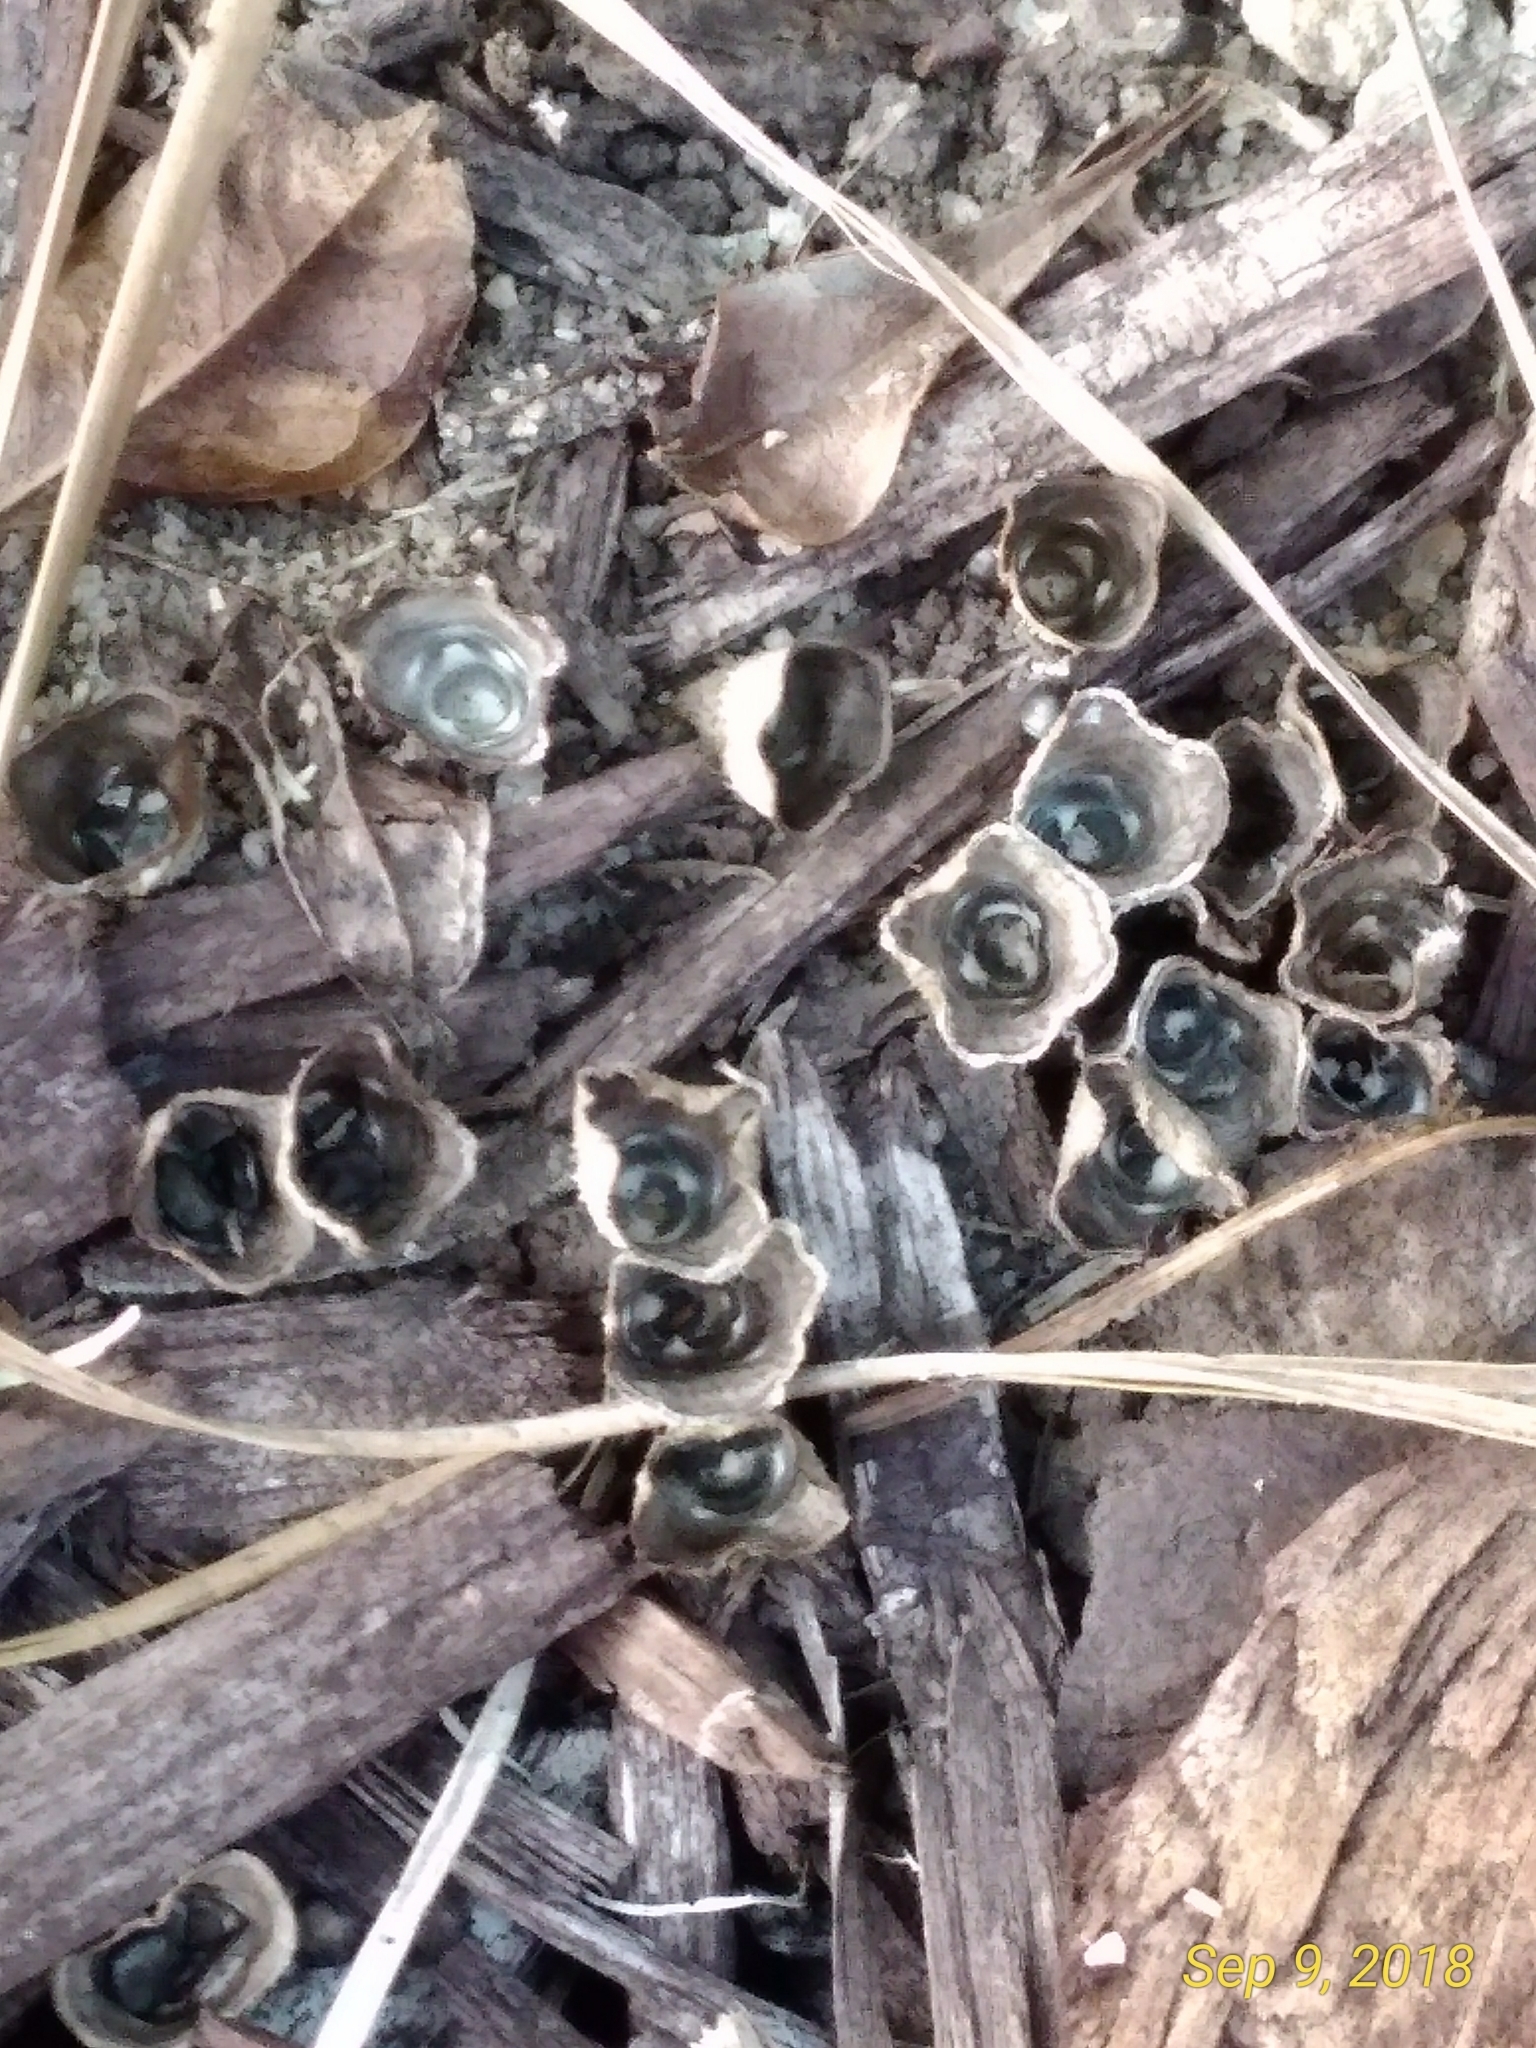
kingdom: Fungi
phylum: Basidiomycota
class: Agaricomycetes
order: Agaricales
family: Agaricaceae
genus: Cyathus
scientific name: Cyathus stercoreus
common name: Dung bird's nest
